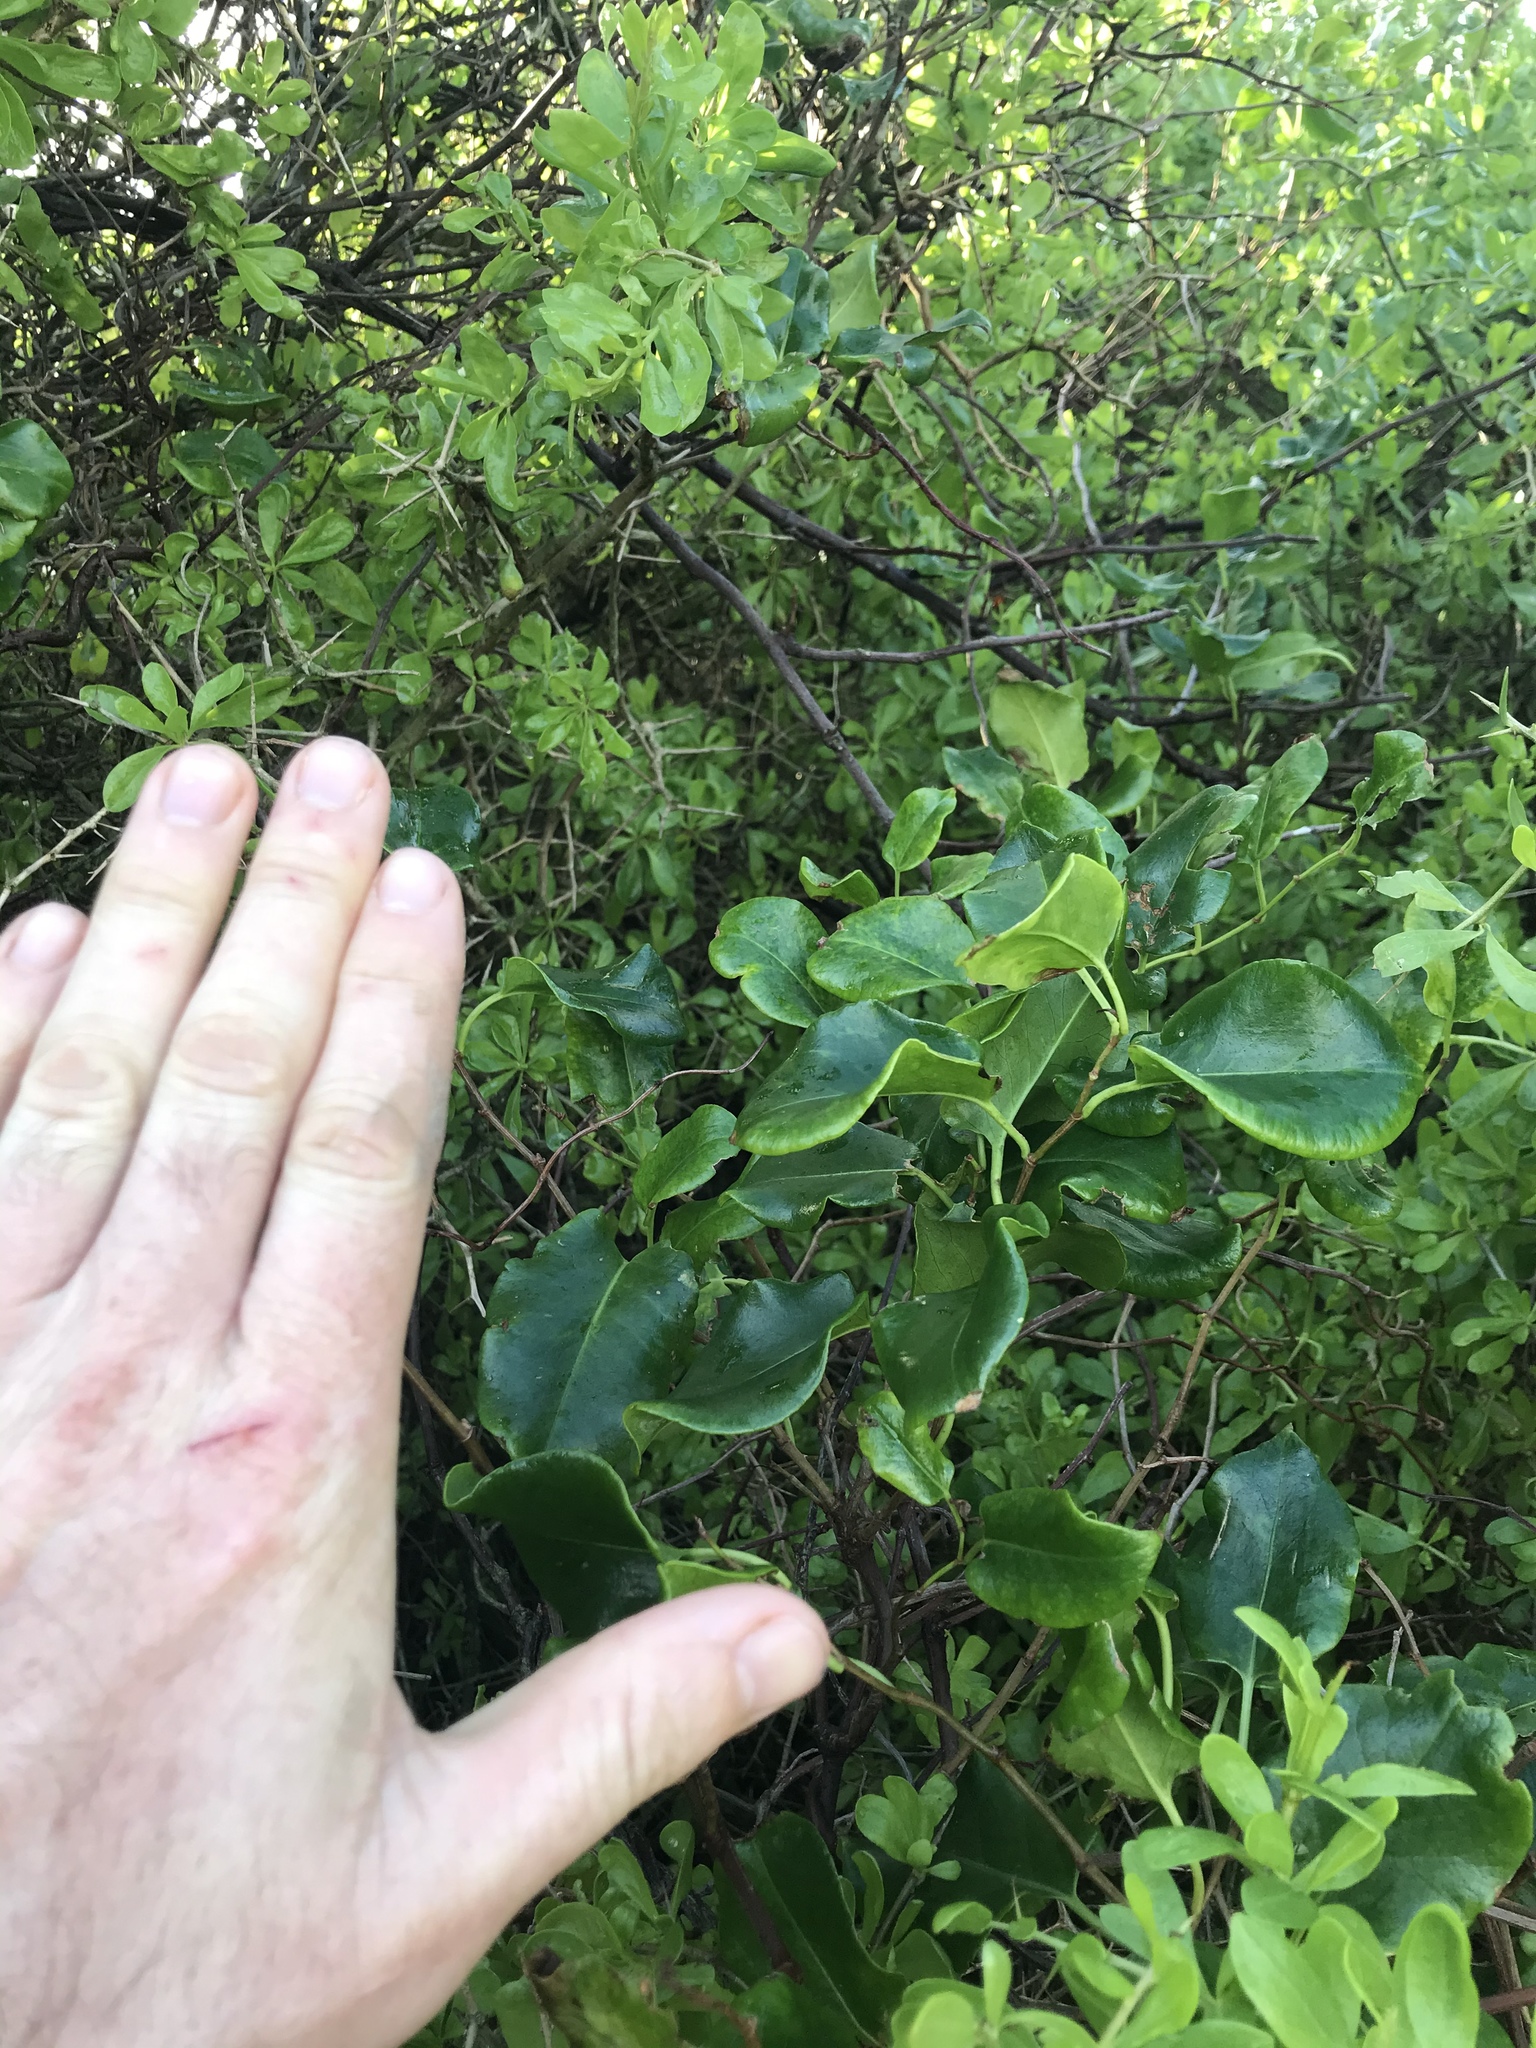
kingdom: Plantae
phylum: Tracheophyta
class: Magnoliopsida
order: Caryophyllales
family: Polygonaceae
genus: Muehlenbeckia
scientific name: Muehlenbeckia australis
